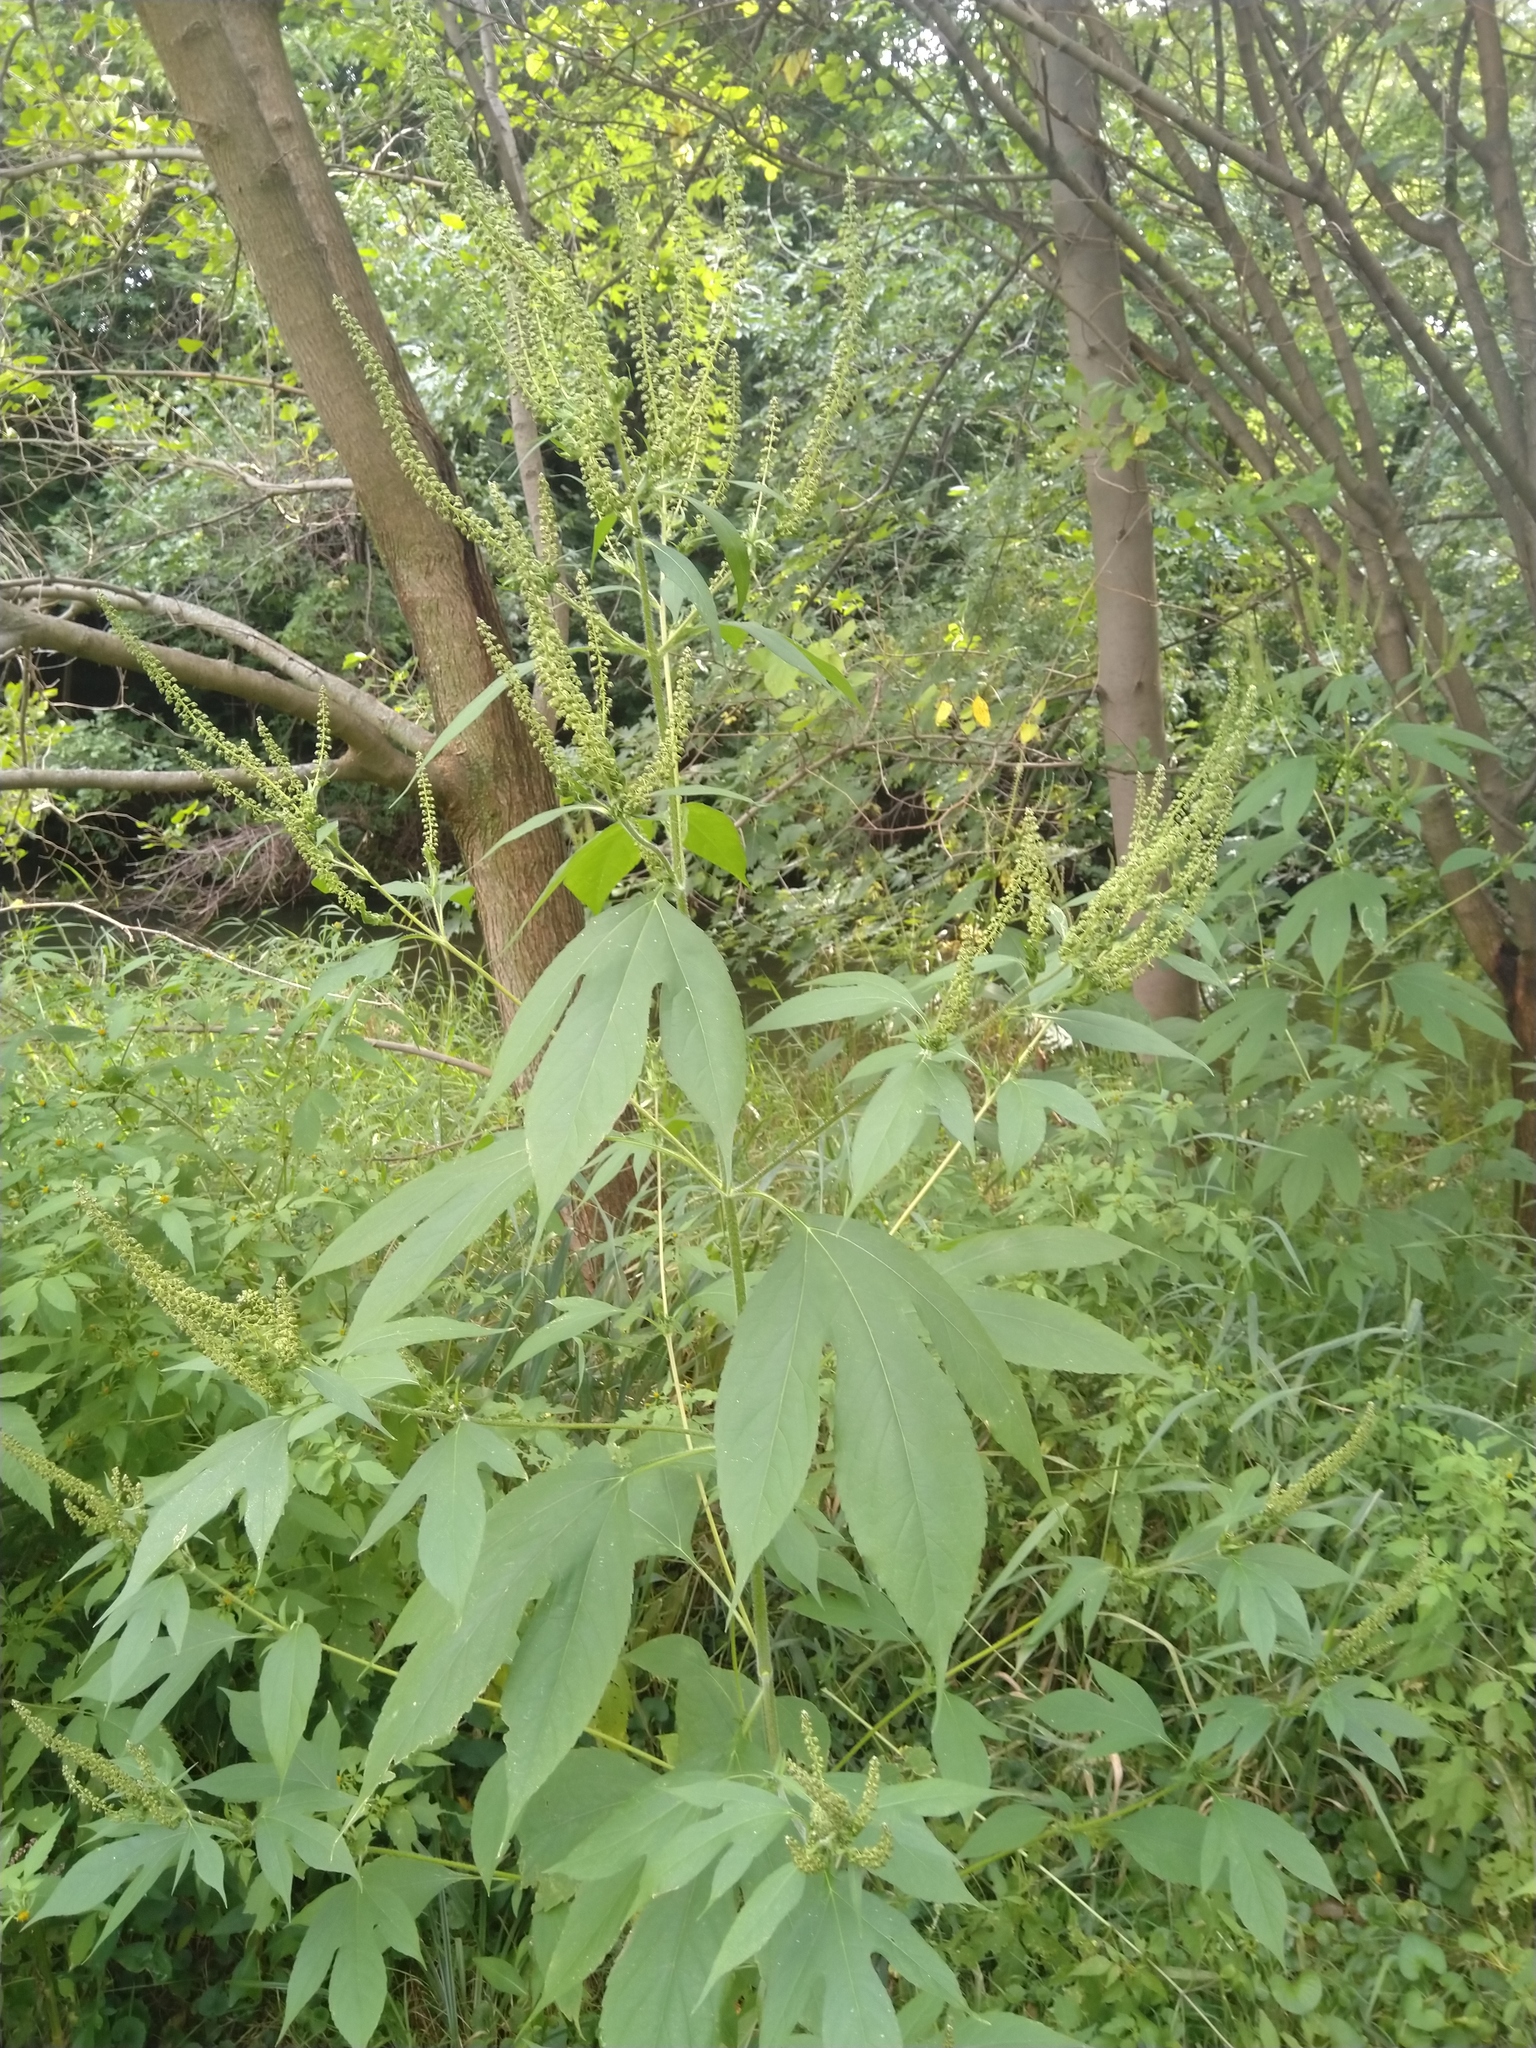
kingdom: Plantae
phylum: Tracheophyta
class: Magnoliopsida
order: Asterales
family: Asteraceae
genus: Ambrosia
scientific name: Ambrosia trifida
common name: Giant ragweed
